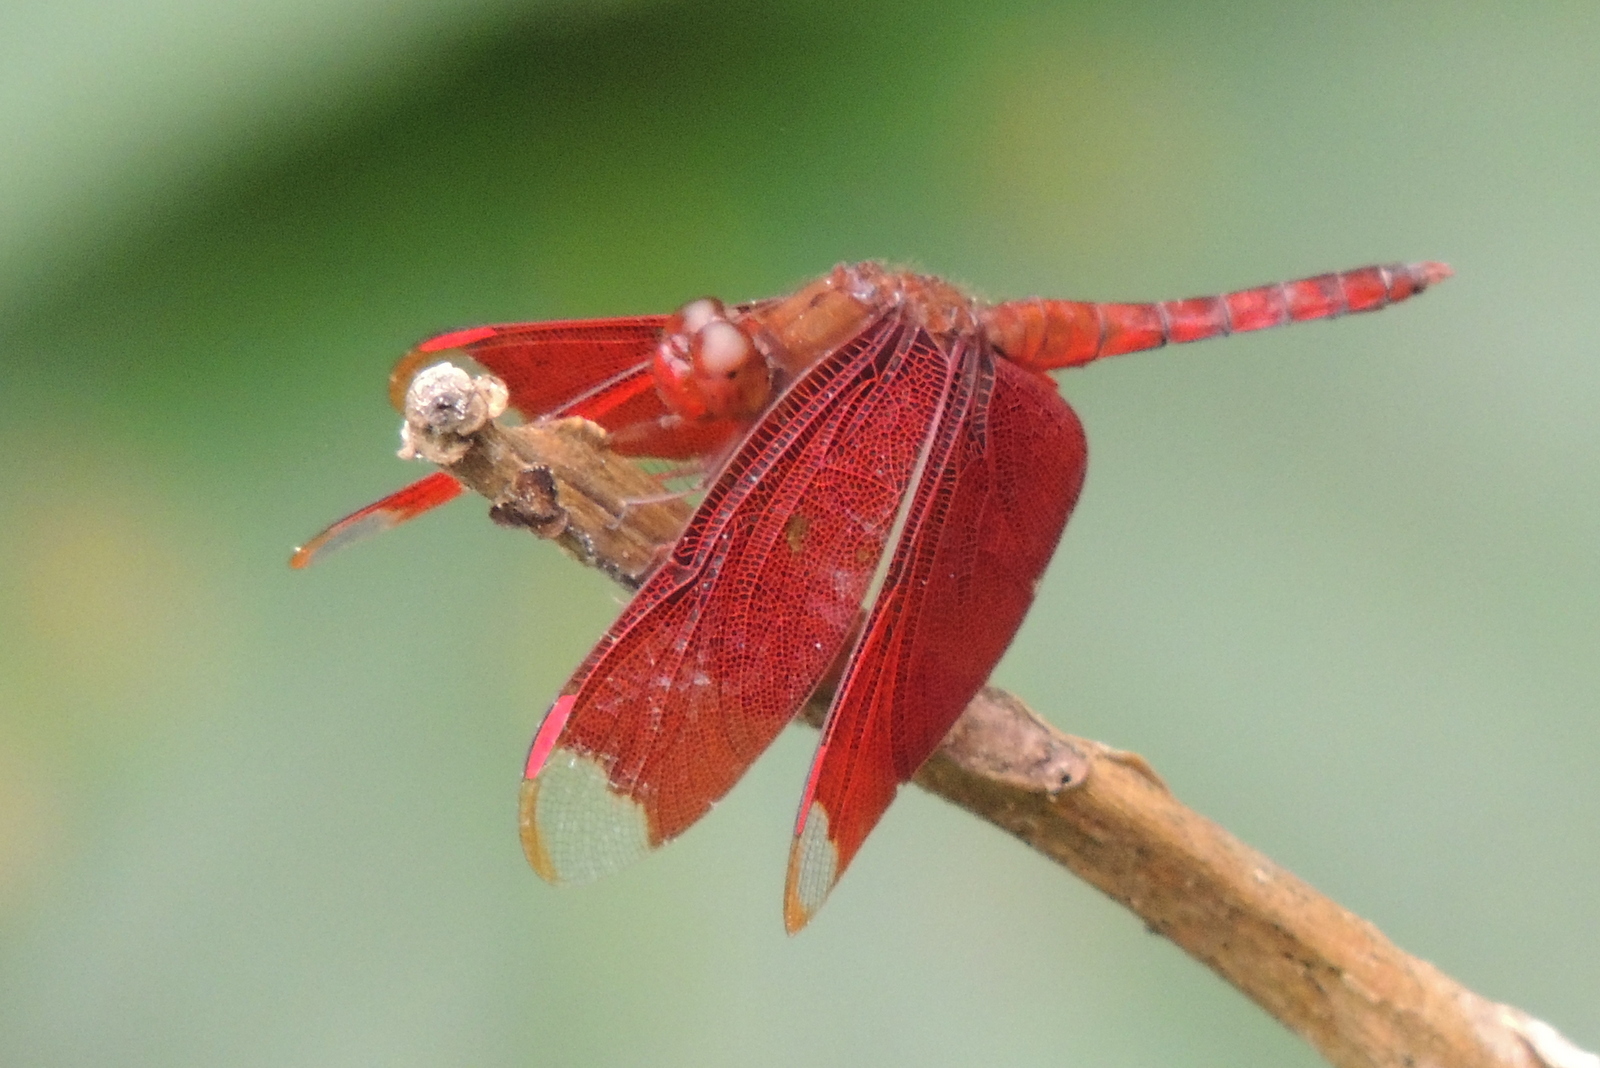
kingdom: Animalia
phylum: Arthropoda
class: Insecta
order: Odonata
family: Libellulidae
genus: Neurothemis
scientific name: Neurothemis fulvia
